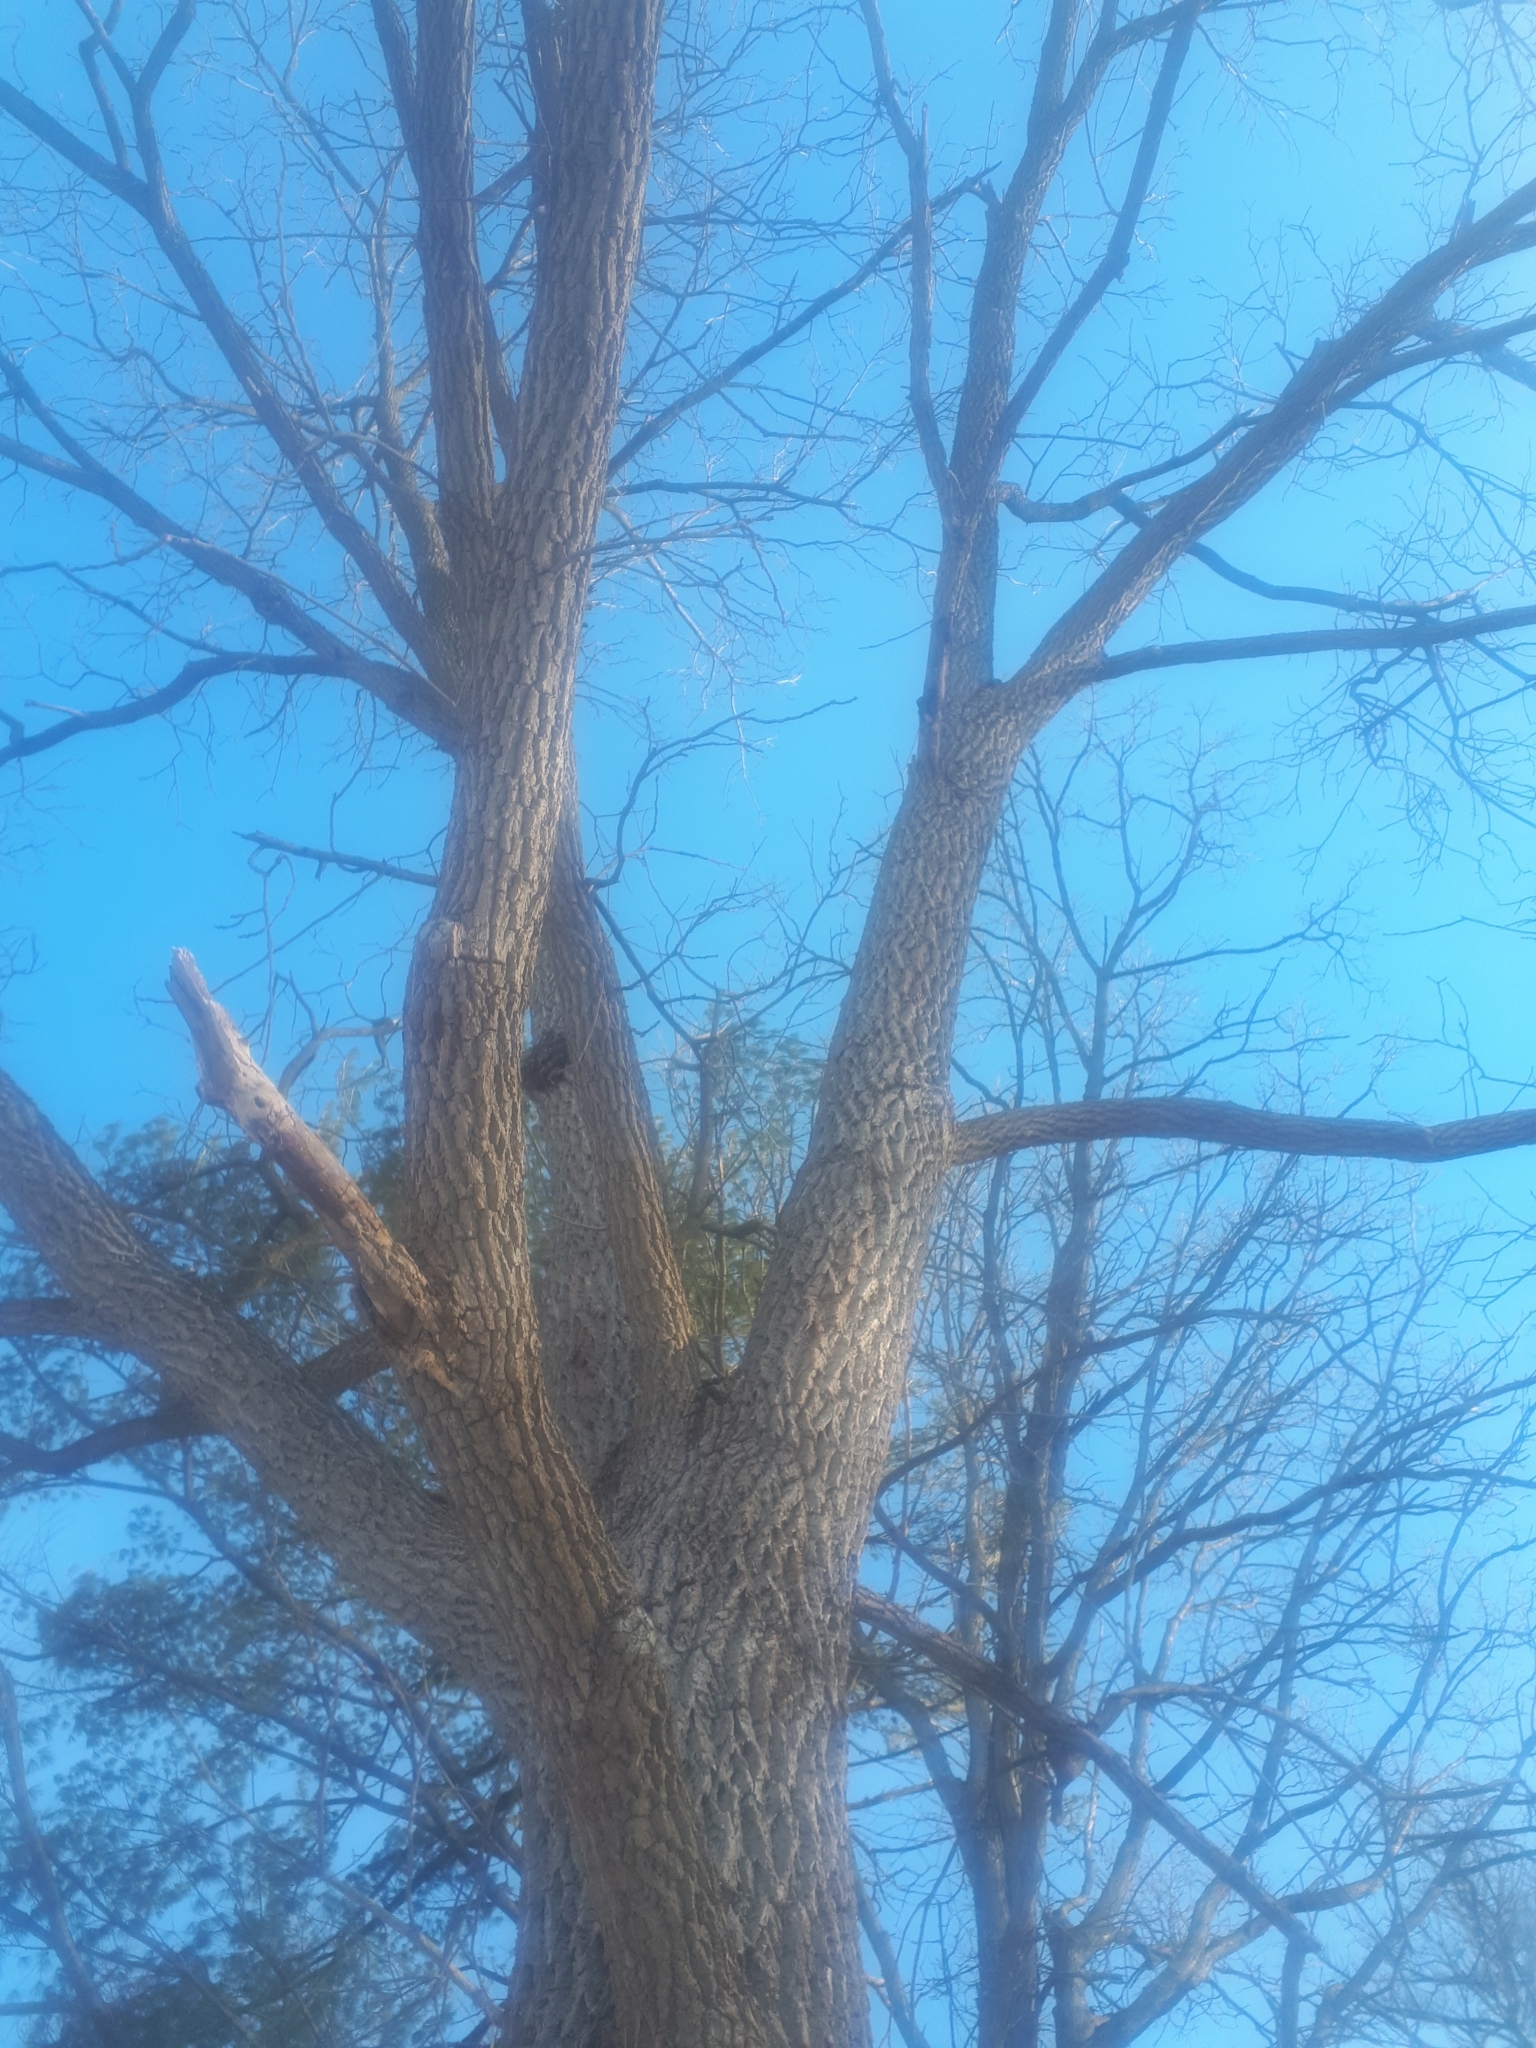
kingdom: Plantae
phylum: Tracheophyta
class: Magnoliopsida
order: Fagales
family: Juglandaceae
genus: Juglans
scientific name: Juglans nigra
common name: Black walnut
